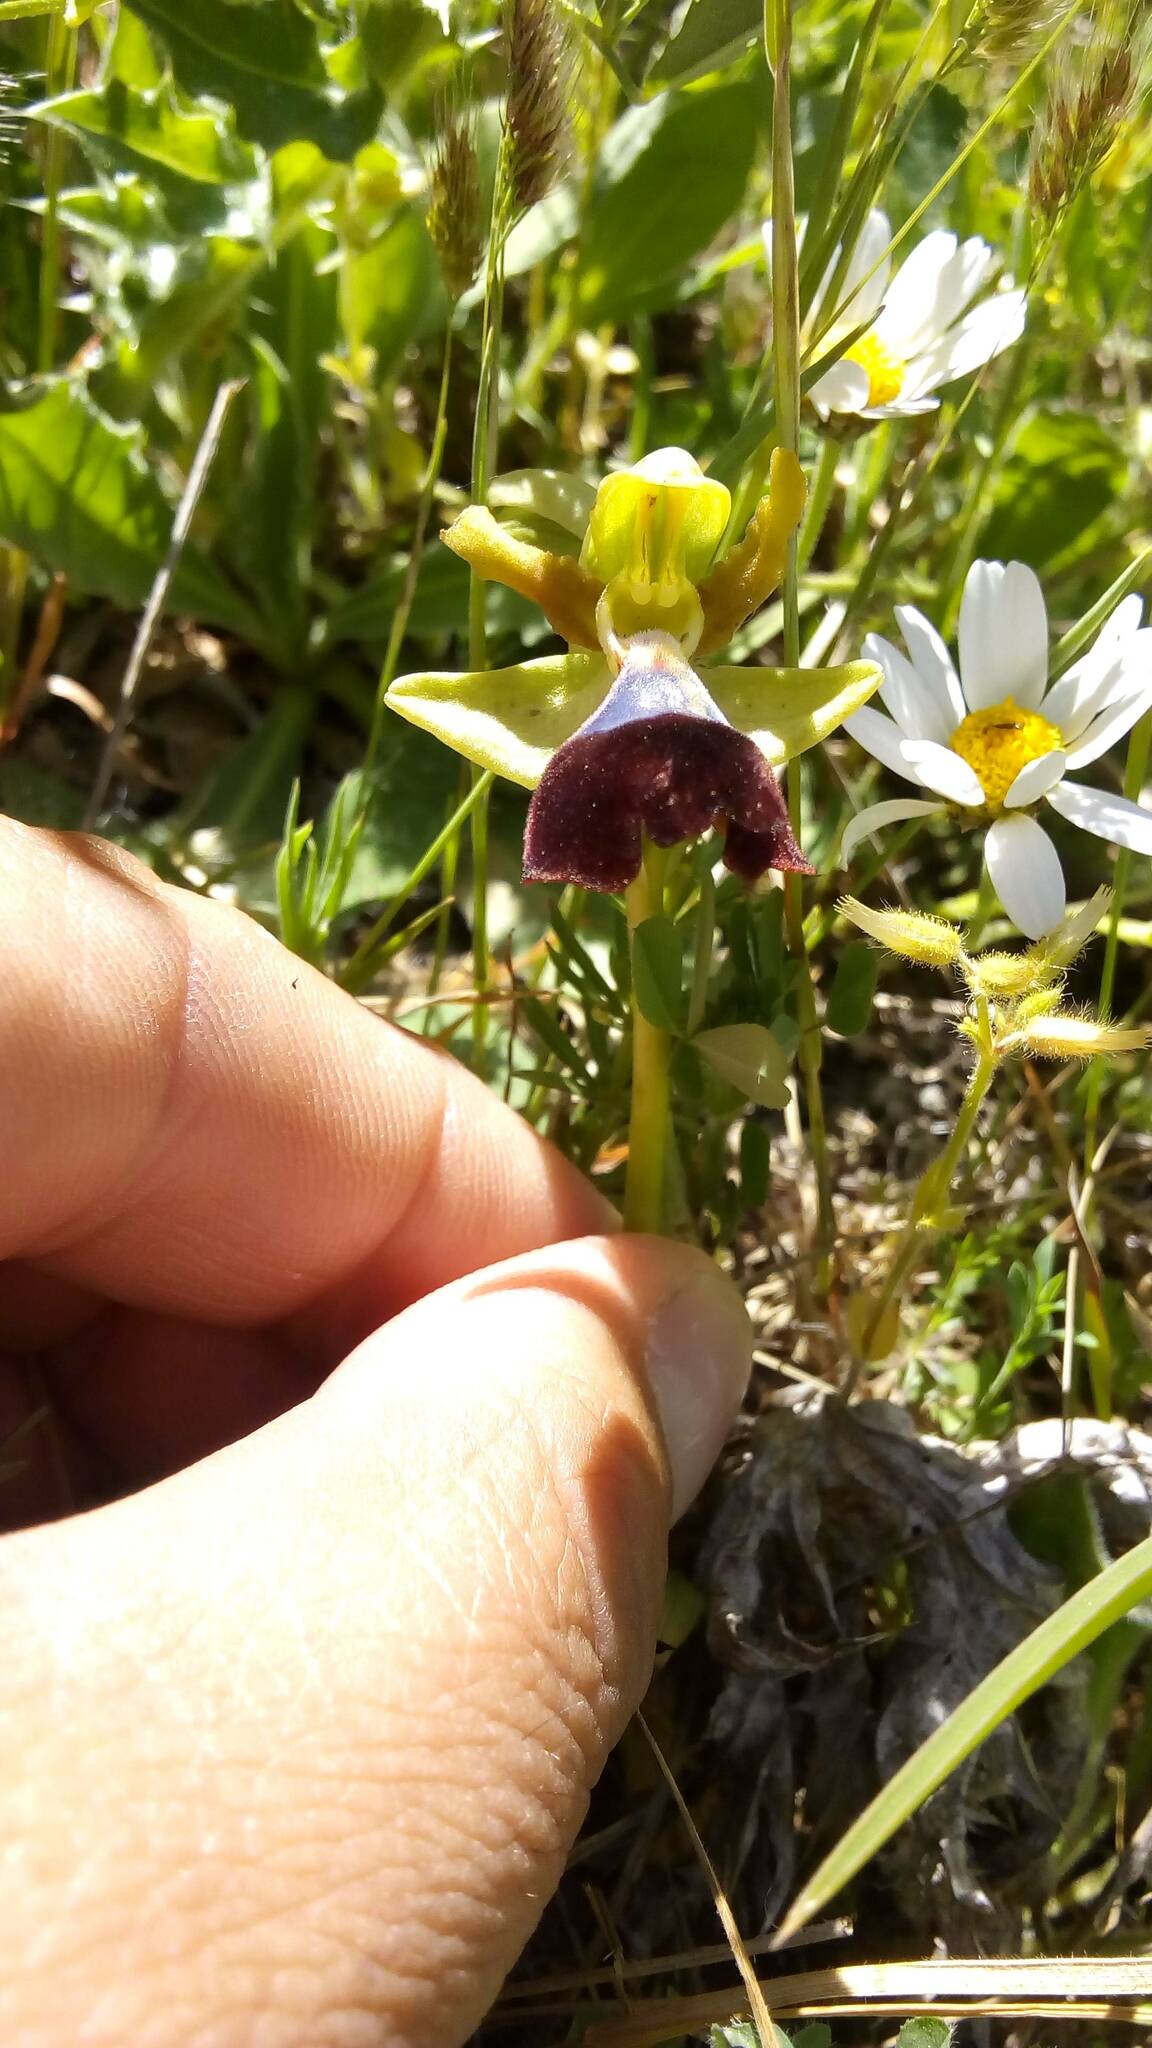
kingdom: Plantae
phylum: Tracheophyta
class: Liliopsida
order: Asparagales
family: Orchidaceae
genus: Ophrys
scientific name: Ophrys atlantica
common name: Atlantic ophrys
